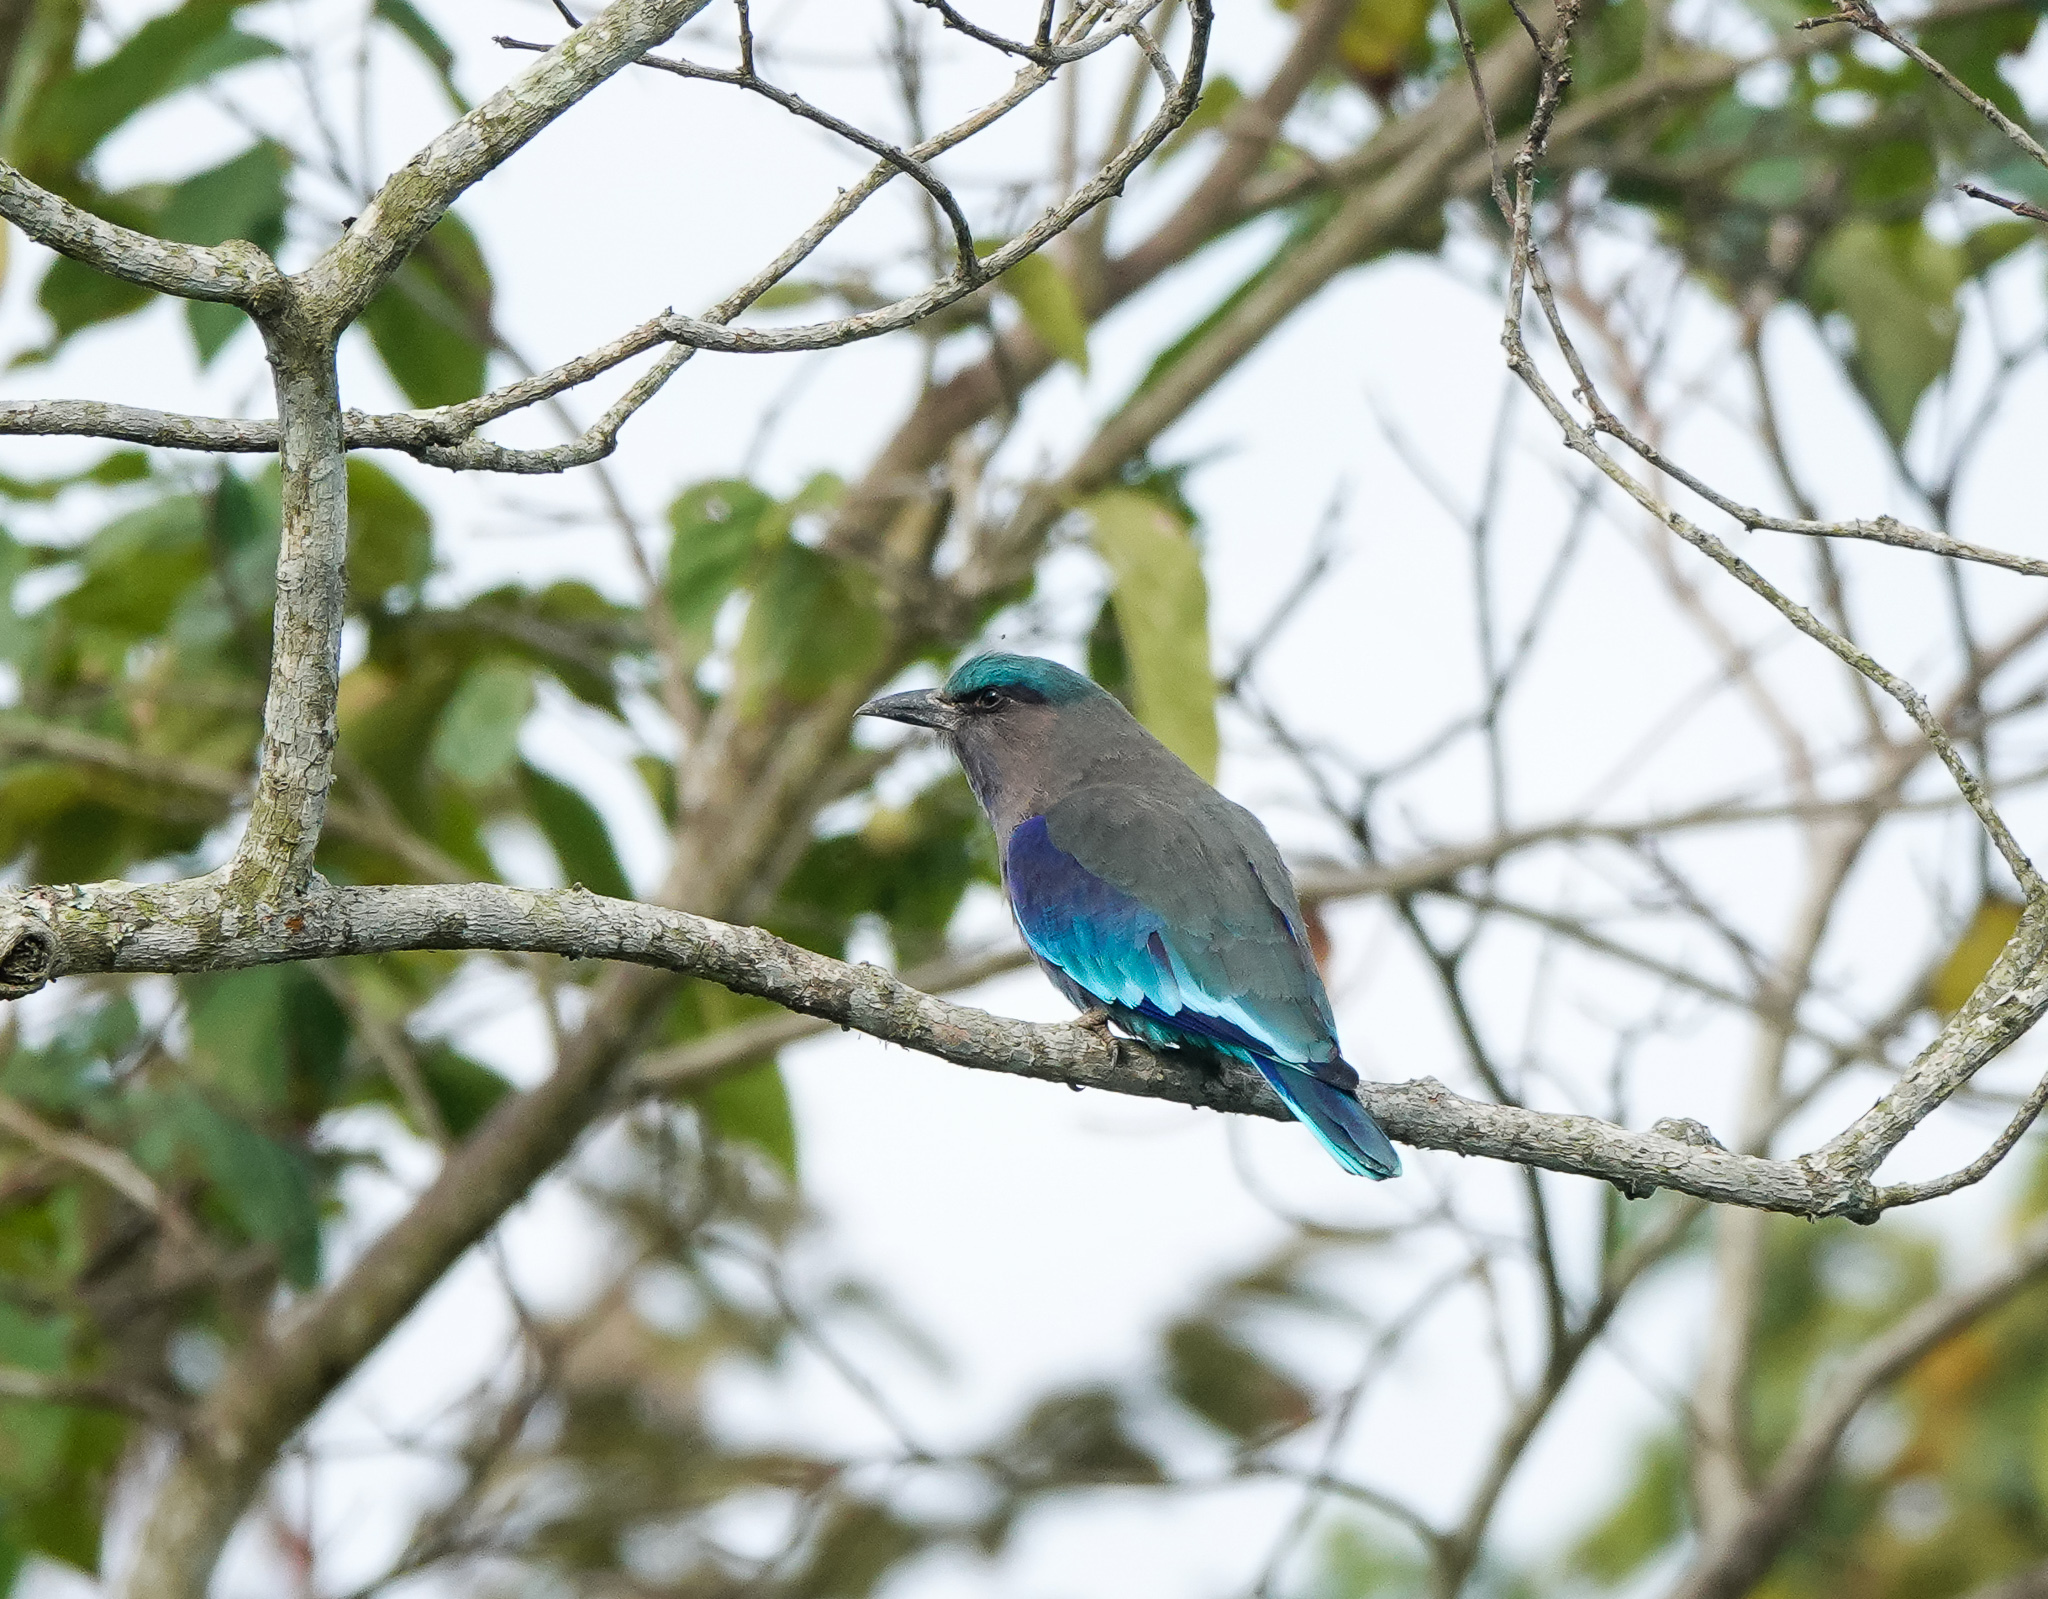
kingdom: Animalia
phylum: Chordata
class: Aves
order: Coraciiformes
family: Coraciidae
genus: Coracias
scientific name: Coracias affinis
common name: Indochinese roller
